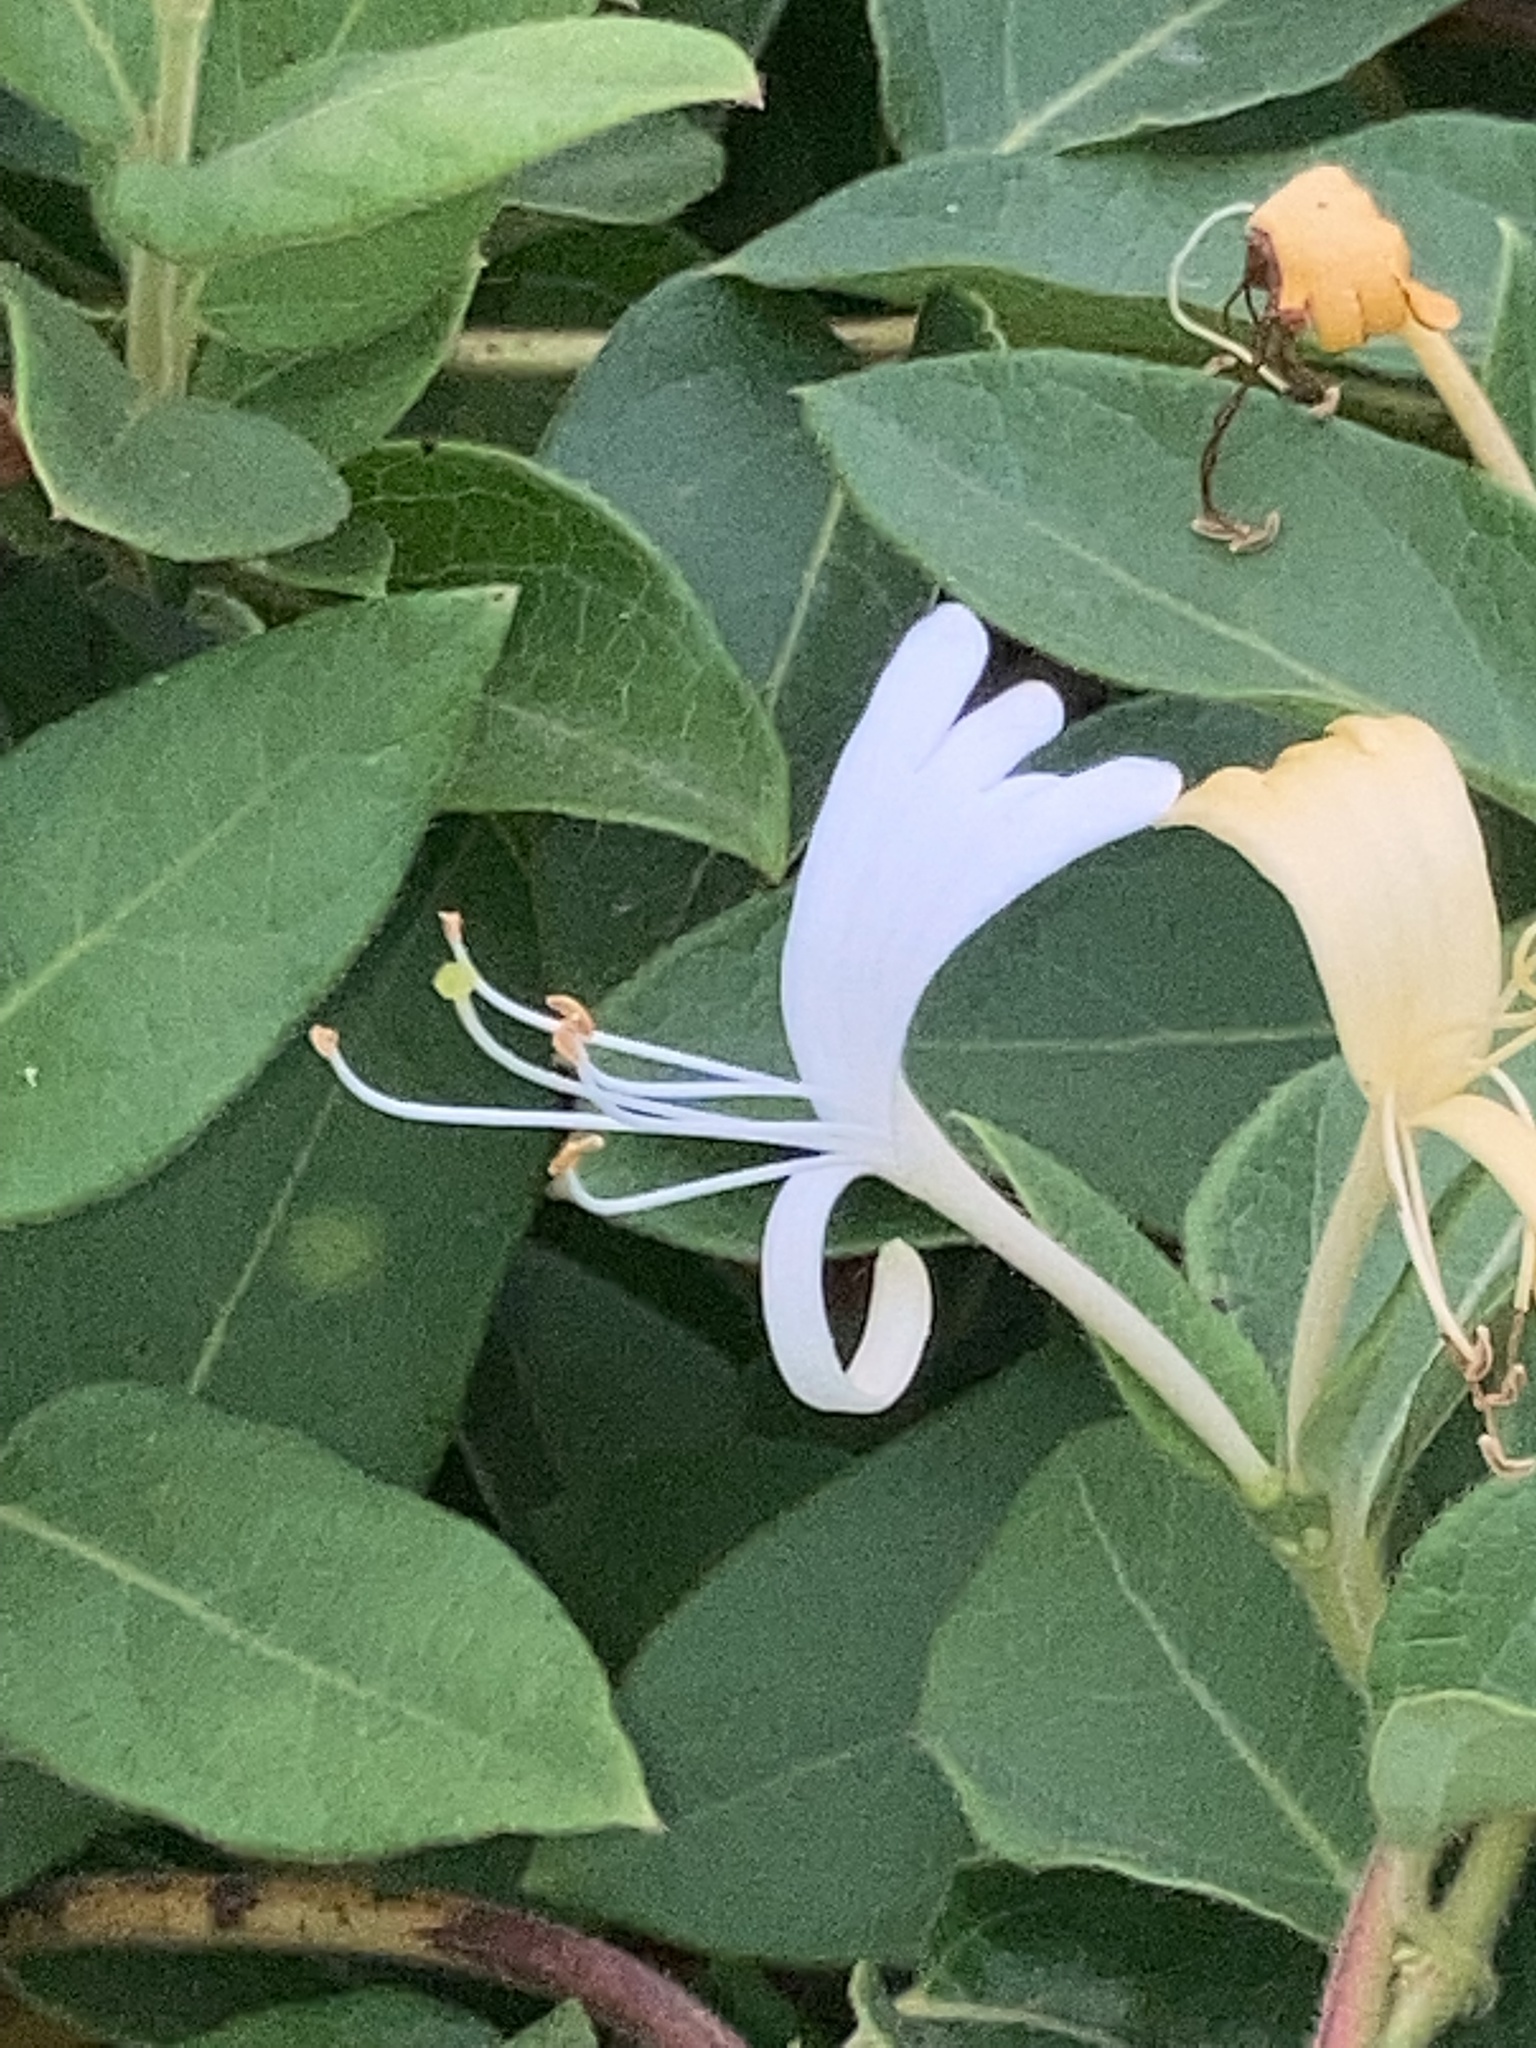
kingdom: Plantae
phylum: Tracheophyta
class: Magnoliopsida
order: Dipsacales
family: Caprifoliaceae
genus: Lonicera
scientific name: Lonicera japonica
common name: Japanese honeysuckle
